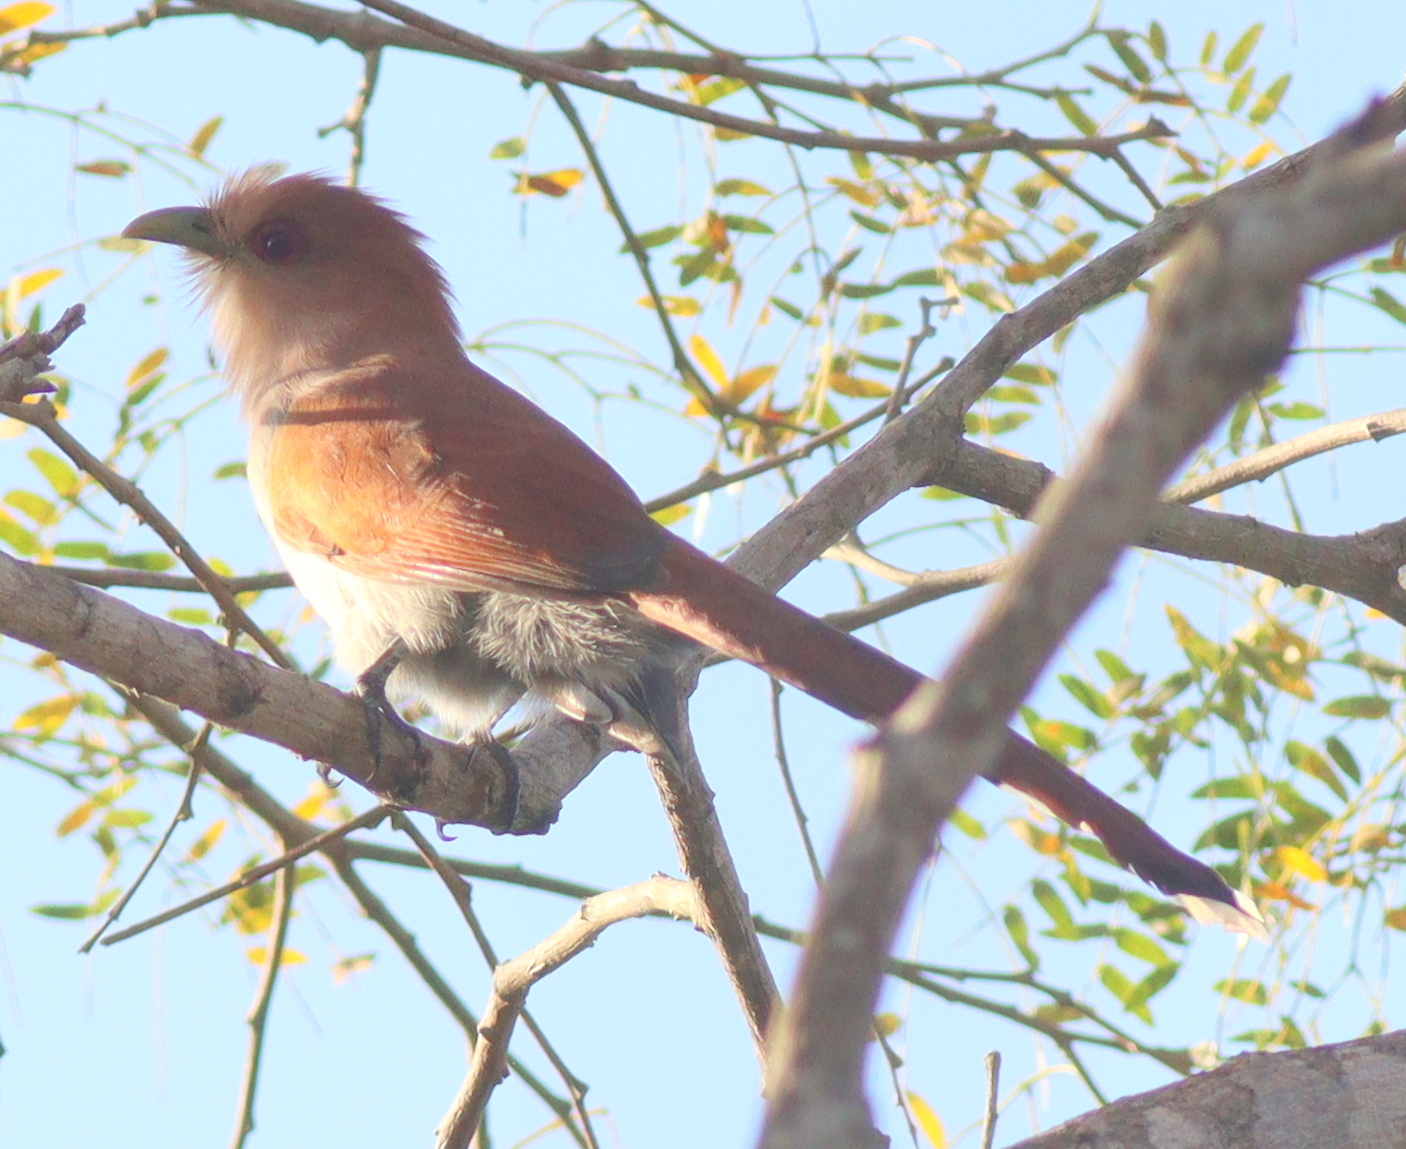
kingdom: Animalia
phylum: Chordata
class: Aves
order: Cuculiformes
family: Cuculidae
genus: Piaya
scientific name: Piaya cayana
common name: Squirrel cuckoo
